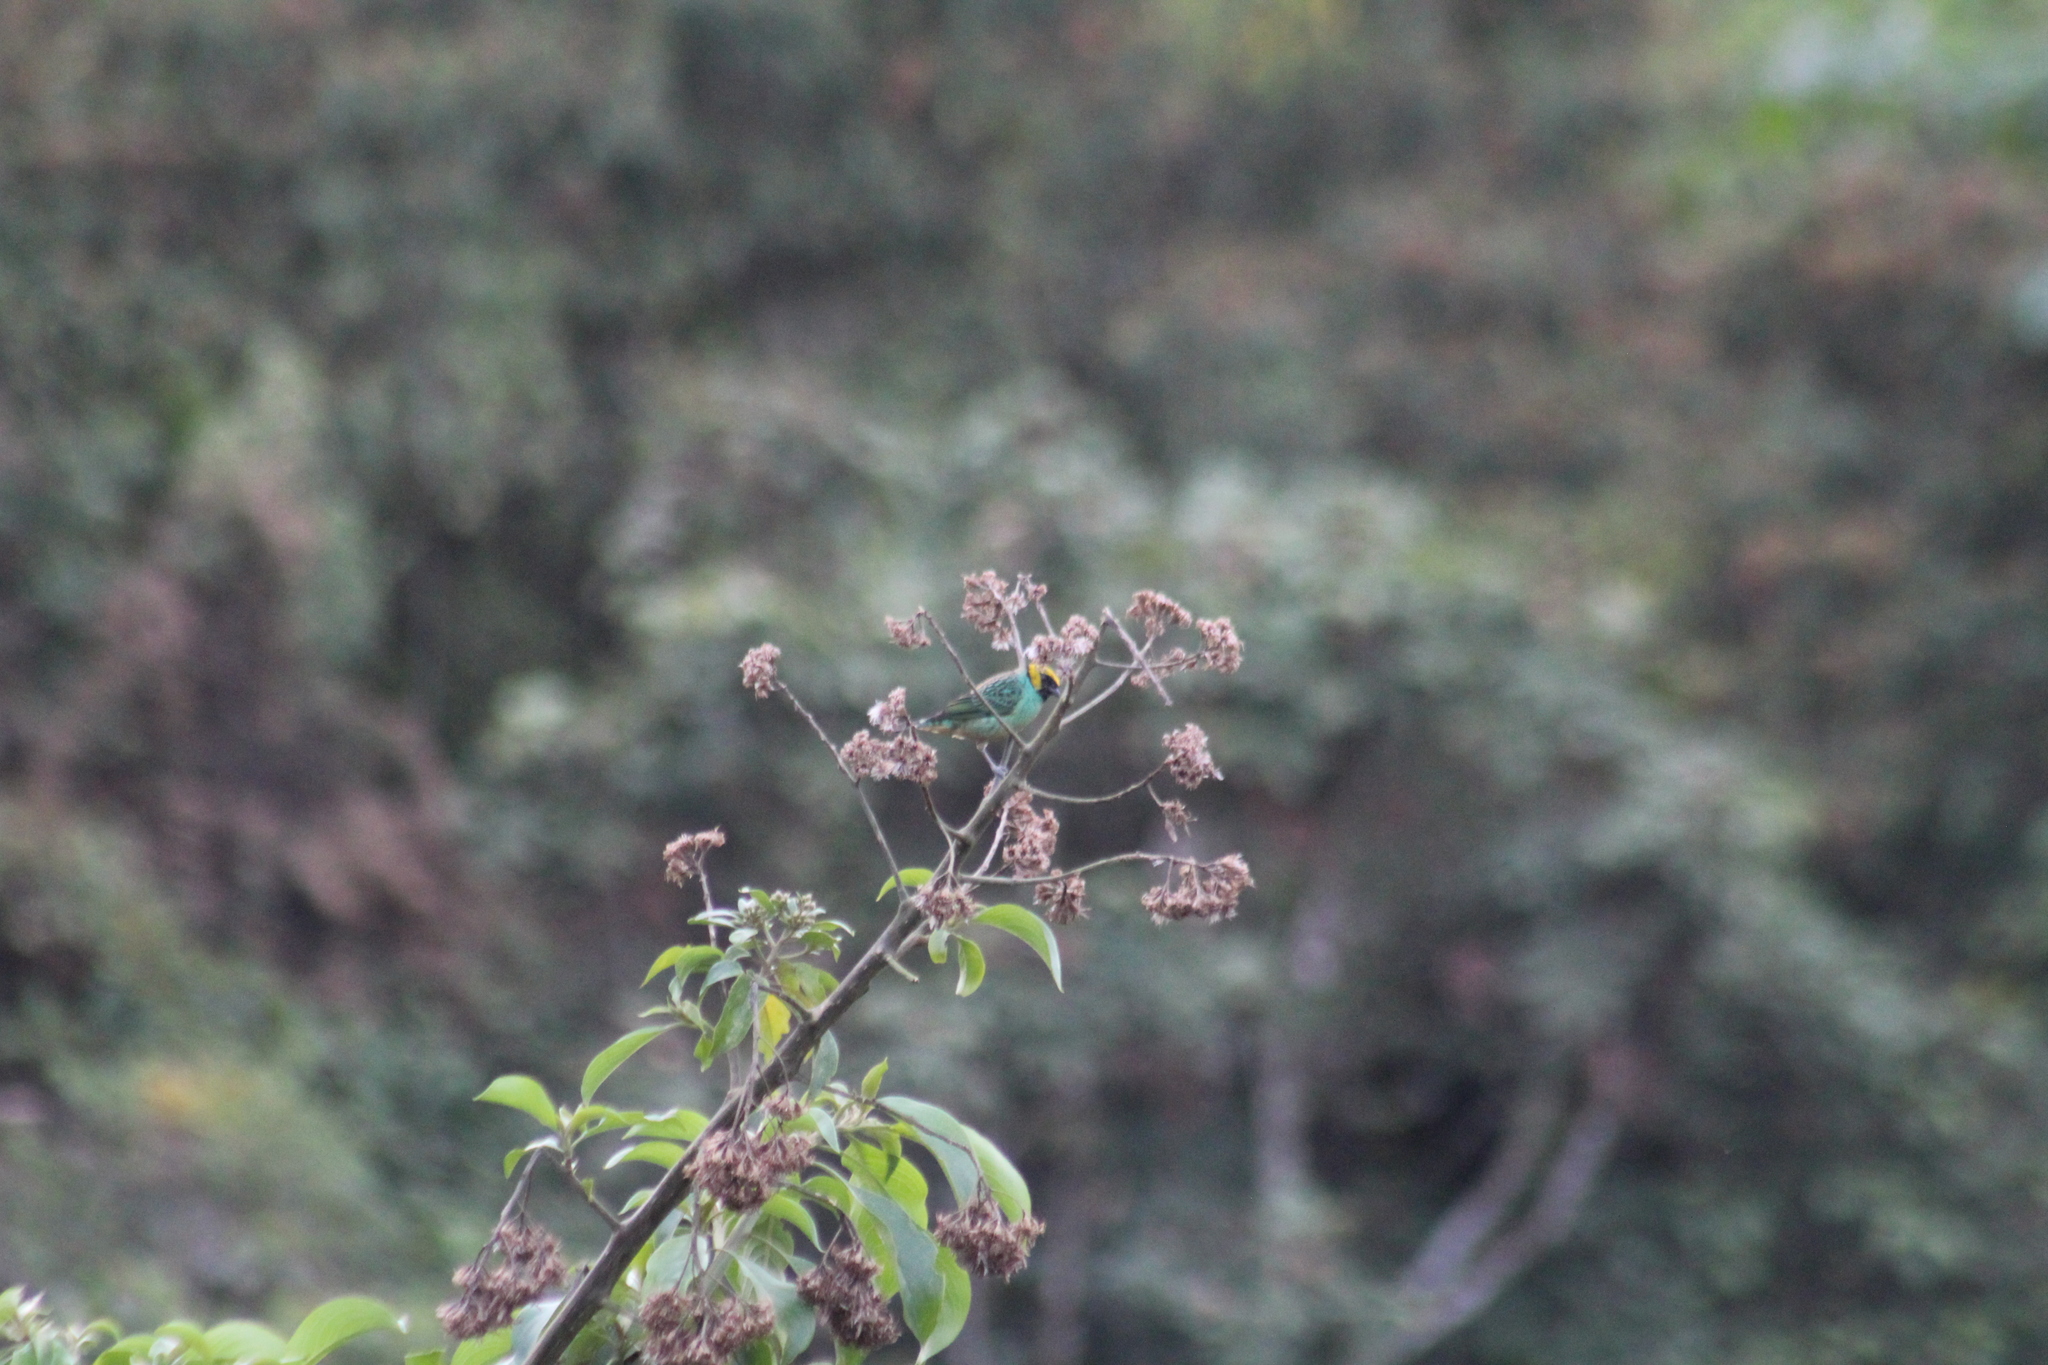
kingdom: Animalia
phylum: Chordata
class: Aves
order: Passeriformes
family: Thraupidae
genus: Tangara
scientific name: Tangara xanthocephala
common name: Saffron-crowned tanager
